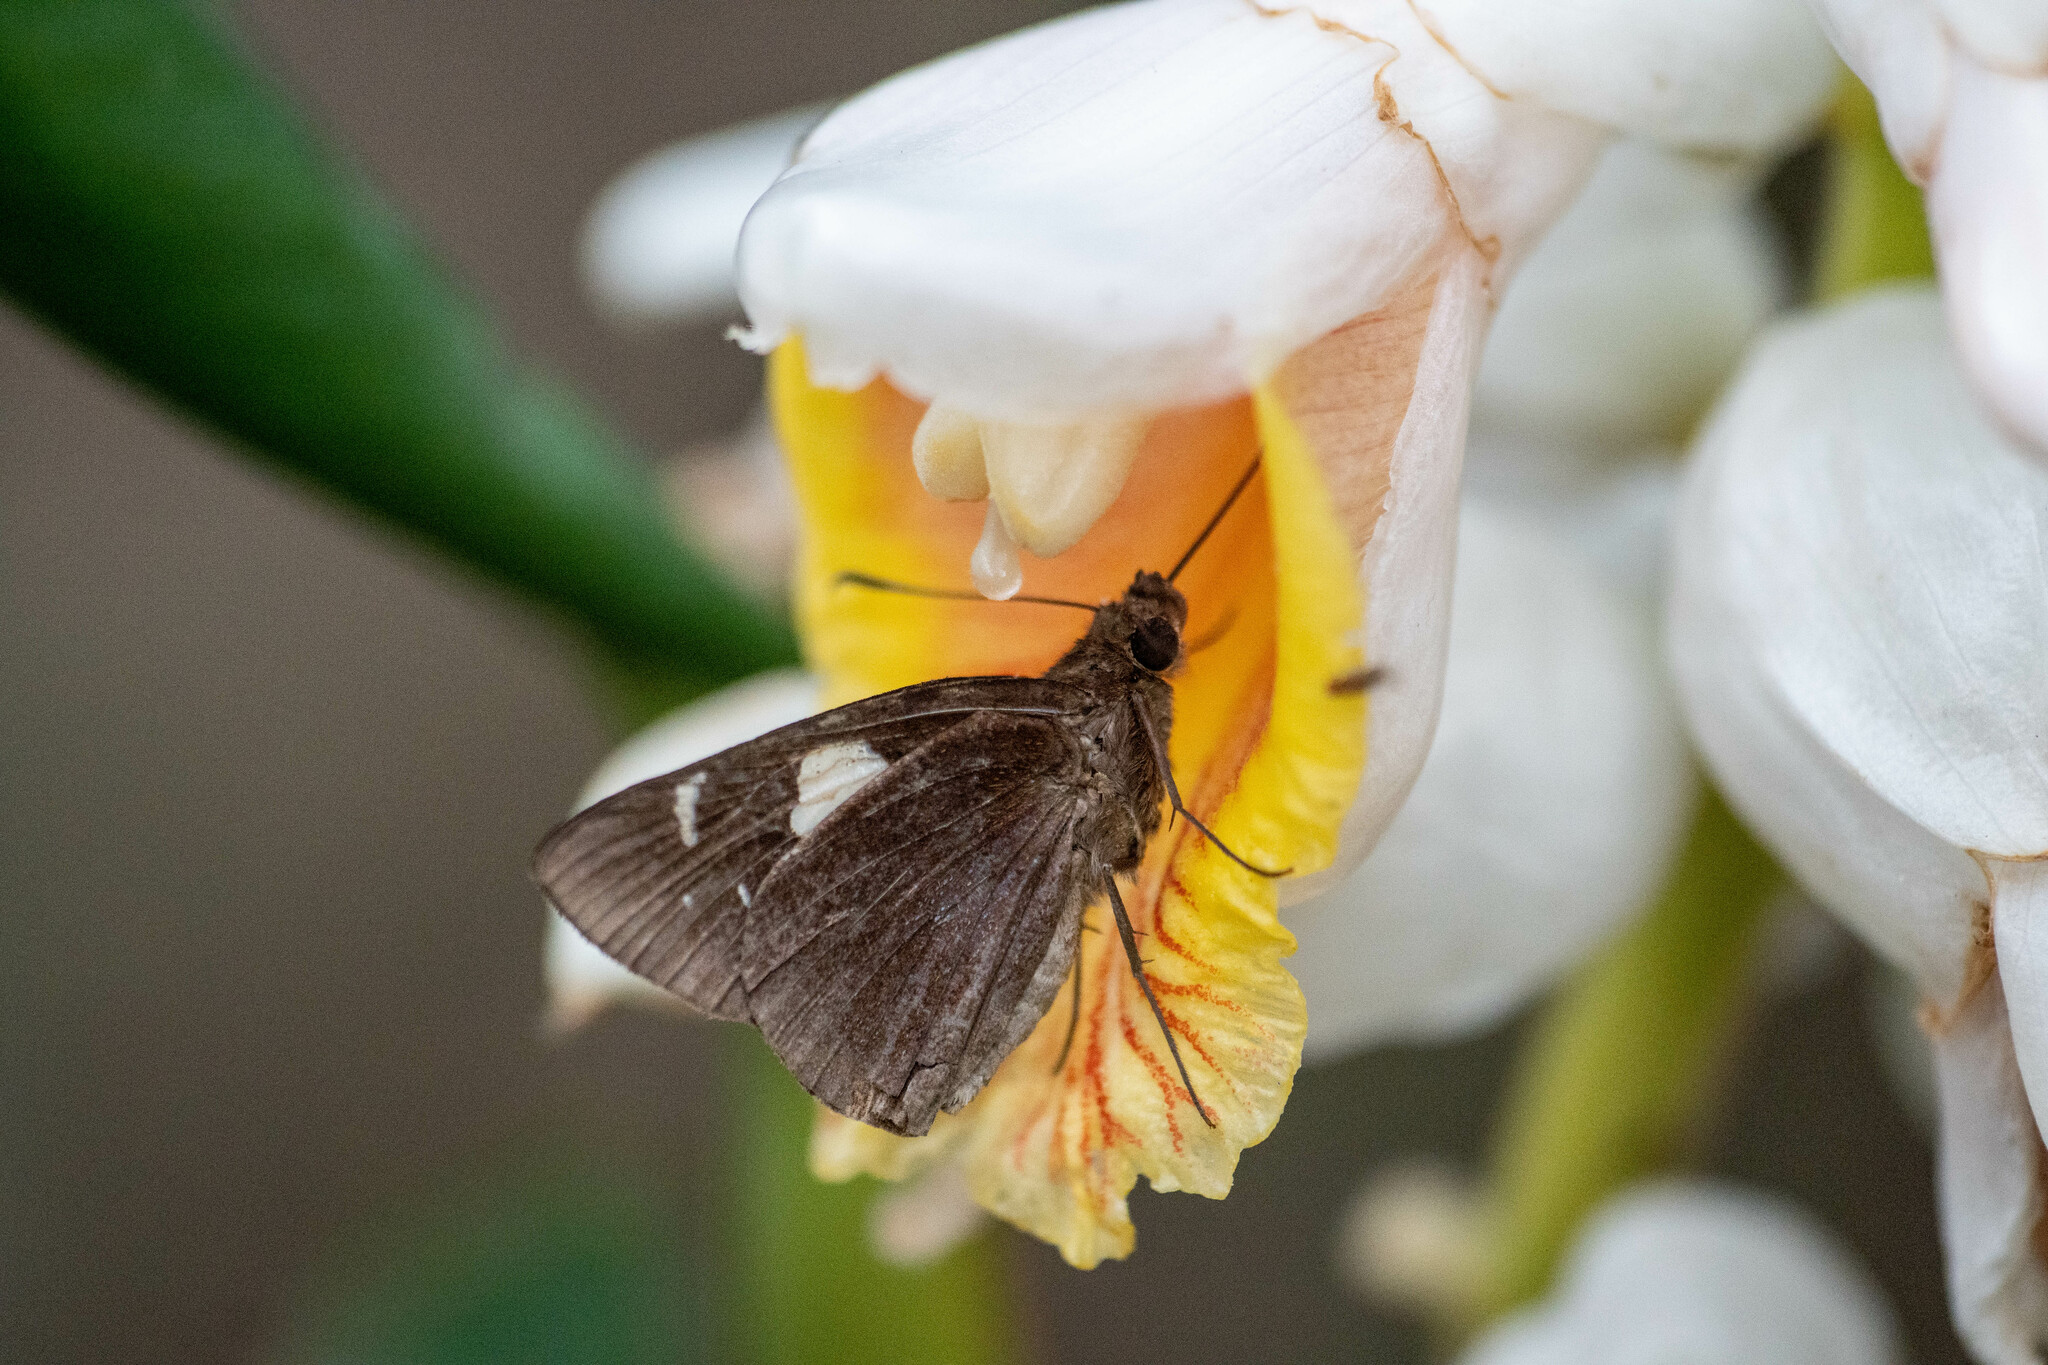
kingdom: Animalia
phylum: Arthropoda
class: Insecta
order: Lepidoptera
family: Hesperiidae
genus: Notocrypta
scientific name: Notocrypta curvifascia
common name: Restricted demon
